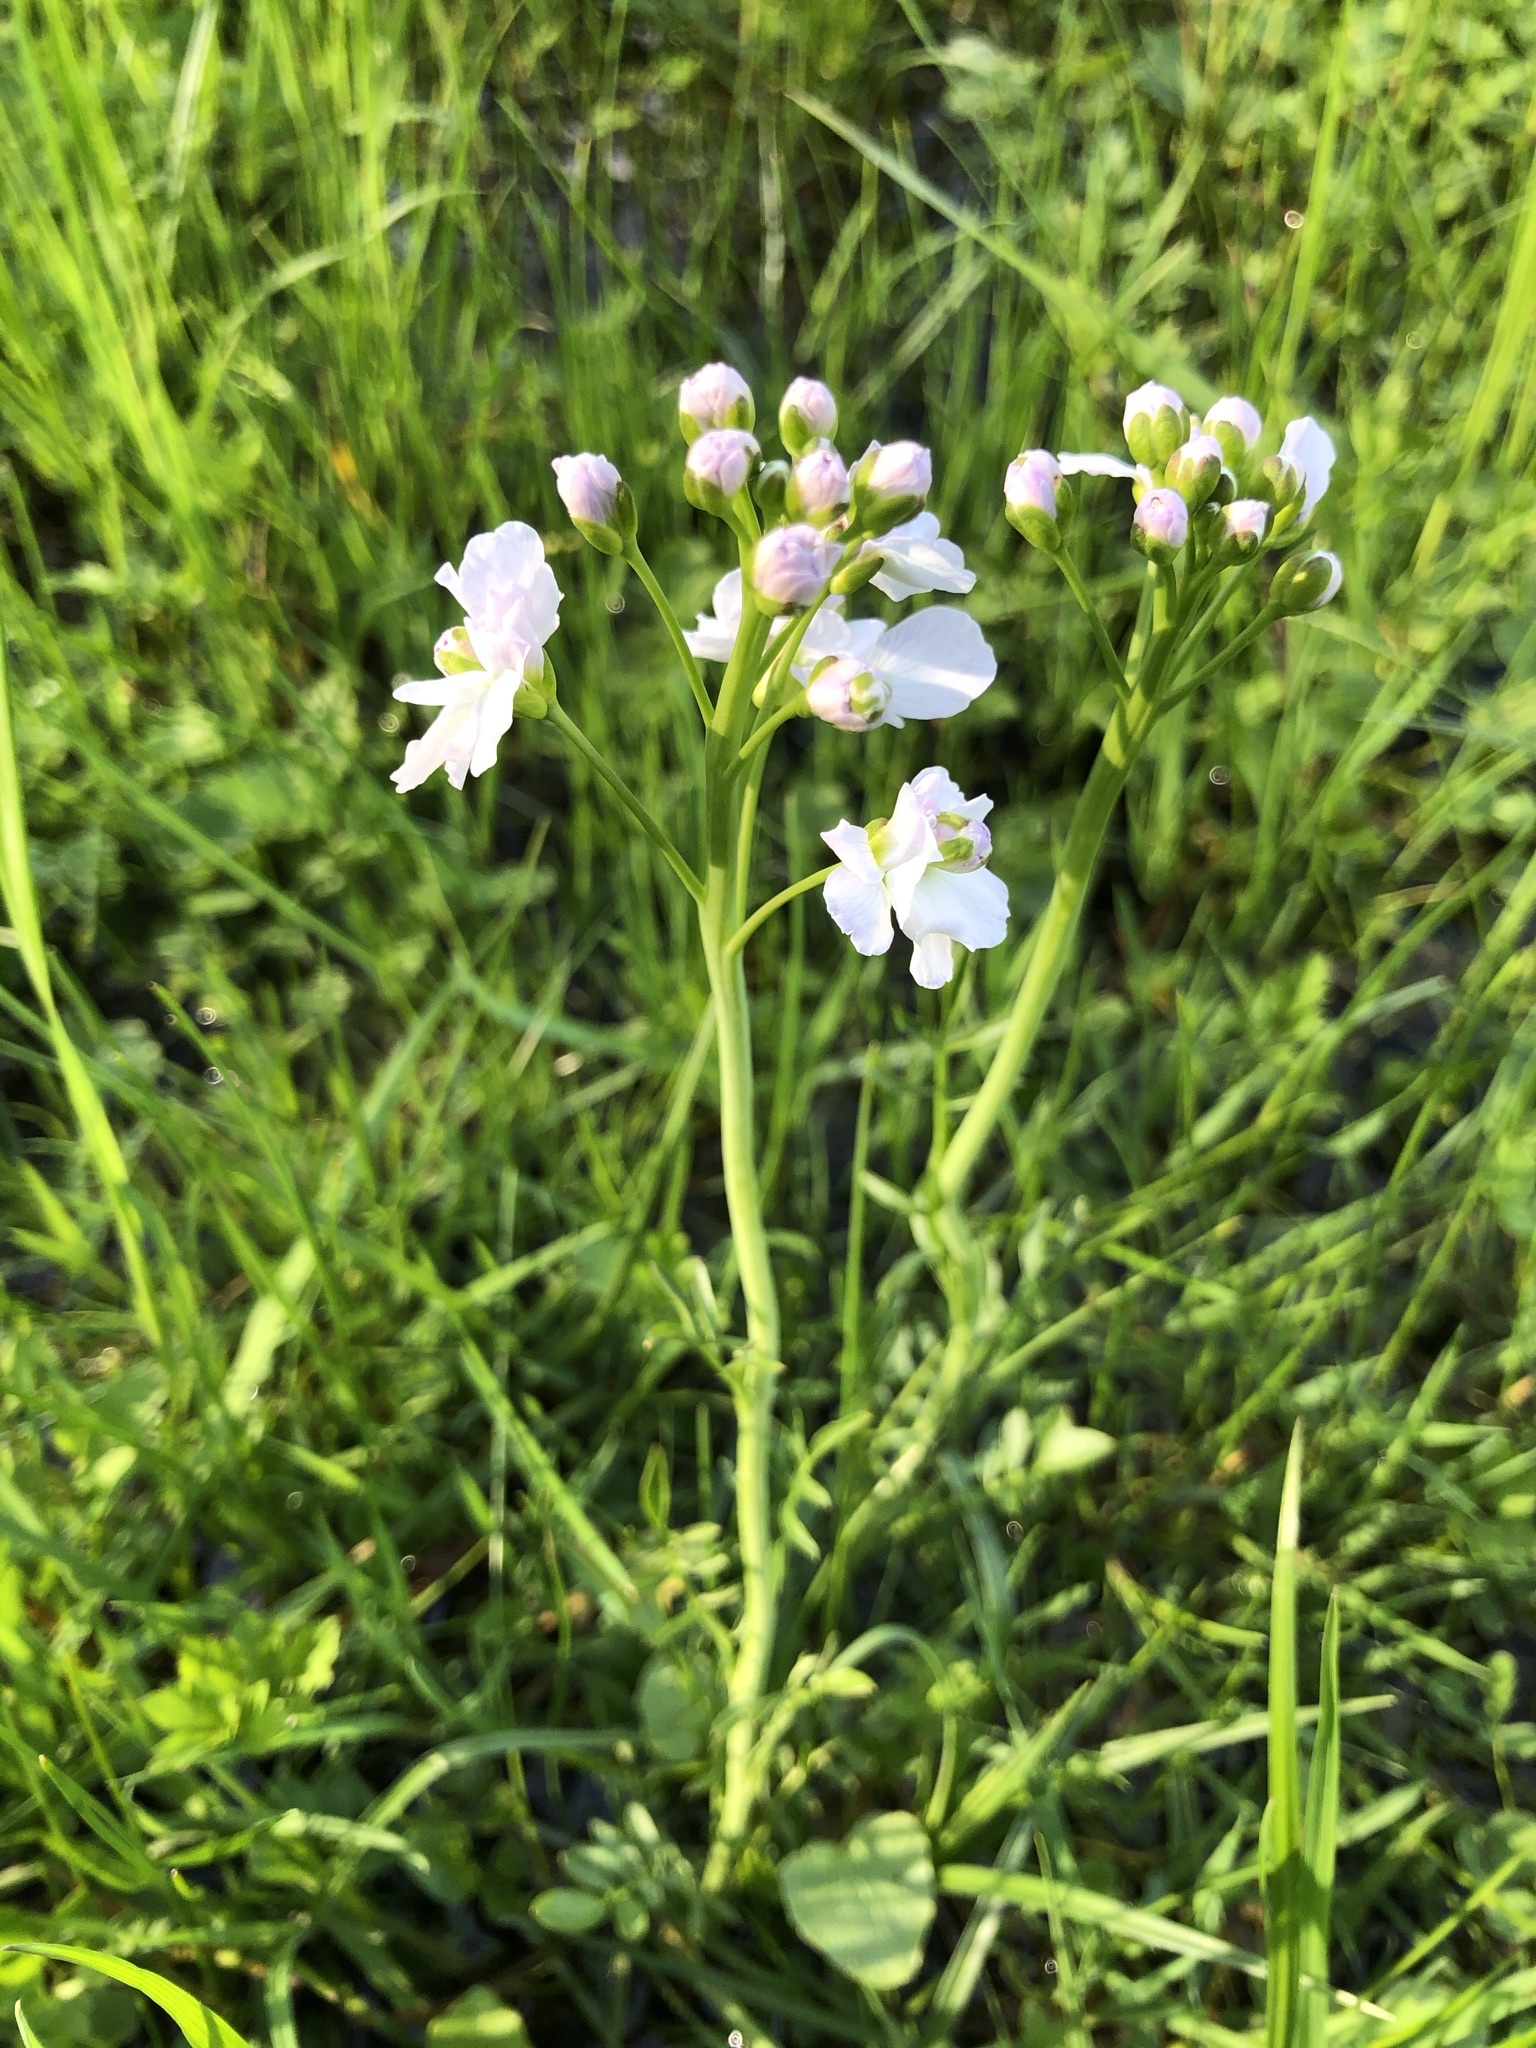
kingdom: Plantae
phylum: Tracheophyta
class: Magnoliopsida
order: Brassicales
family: Brassicaceae
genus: Cardamine
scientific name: Cardamine pratensis
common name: Cuckoo flower
